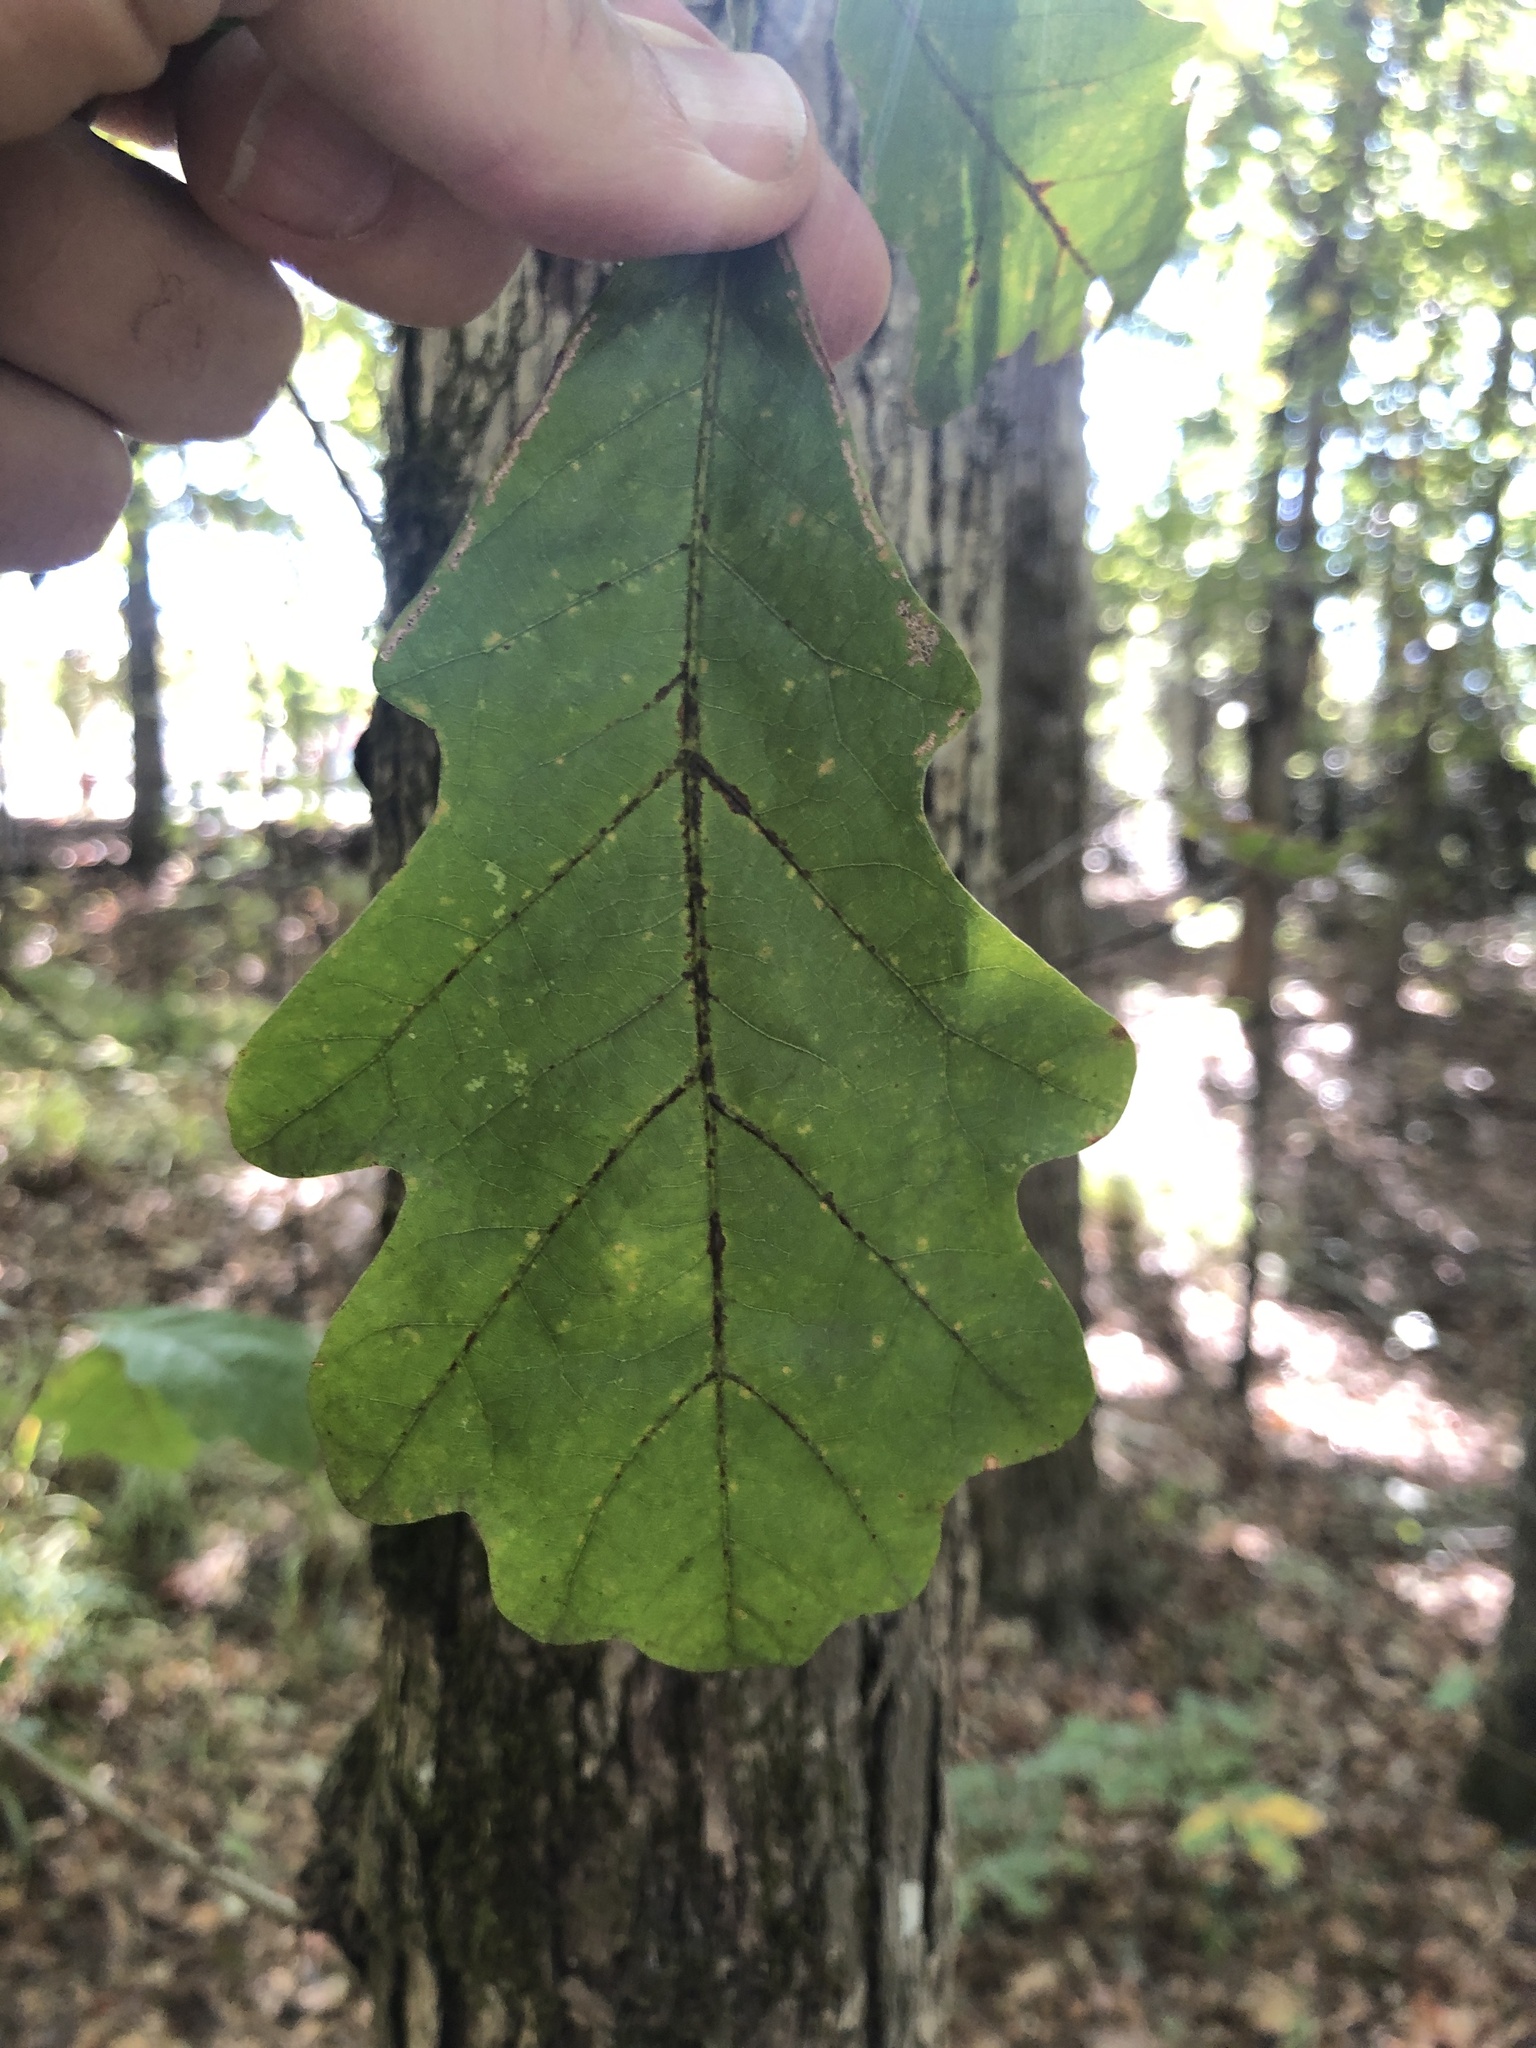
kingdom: Plantae
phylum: Tracheophyta
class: Magnoliopsida
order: Fagales
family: Fagaceae
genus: Quercus
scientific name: Quercus alba
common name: White oak
